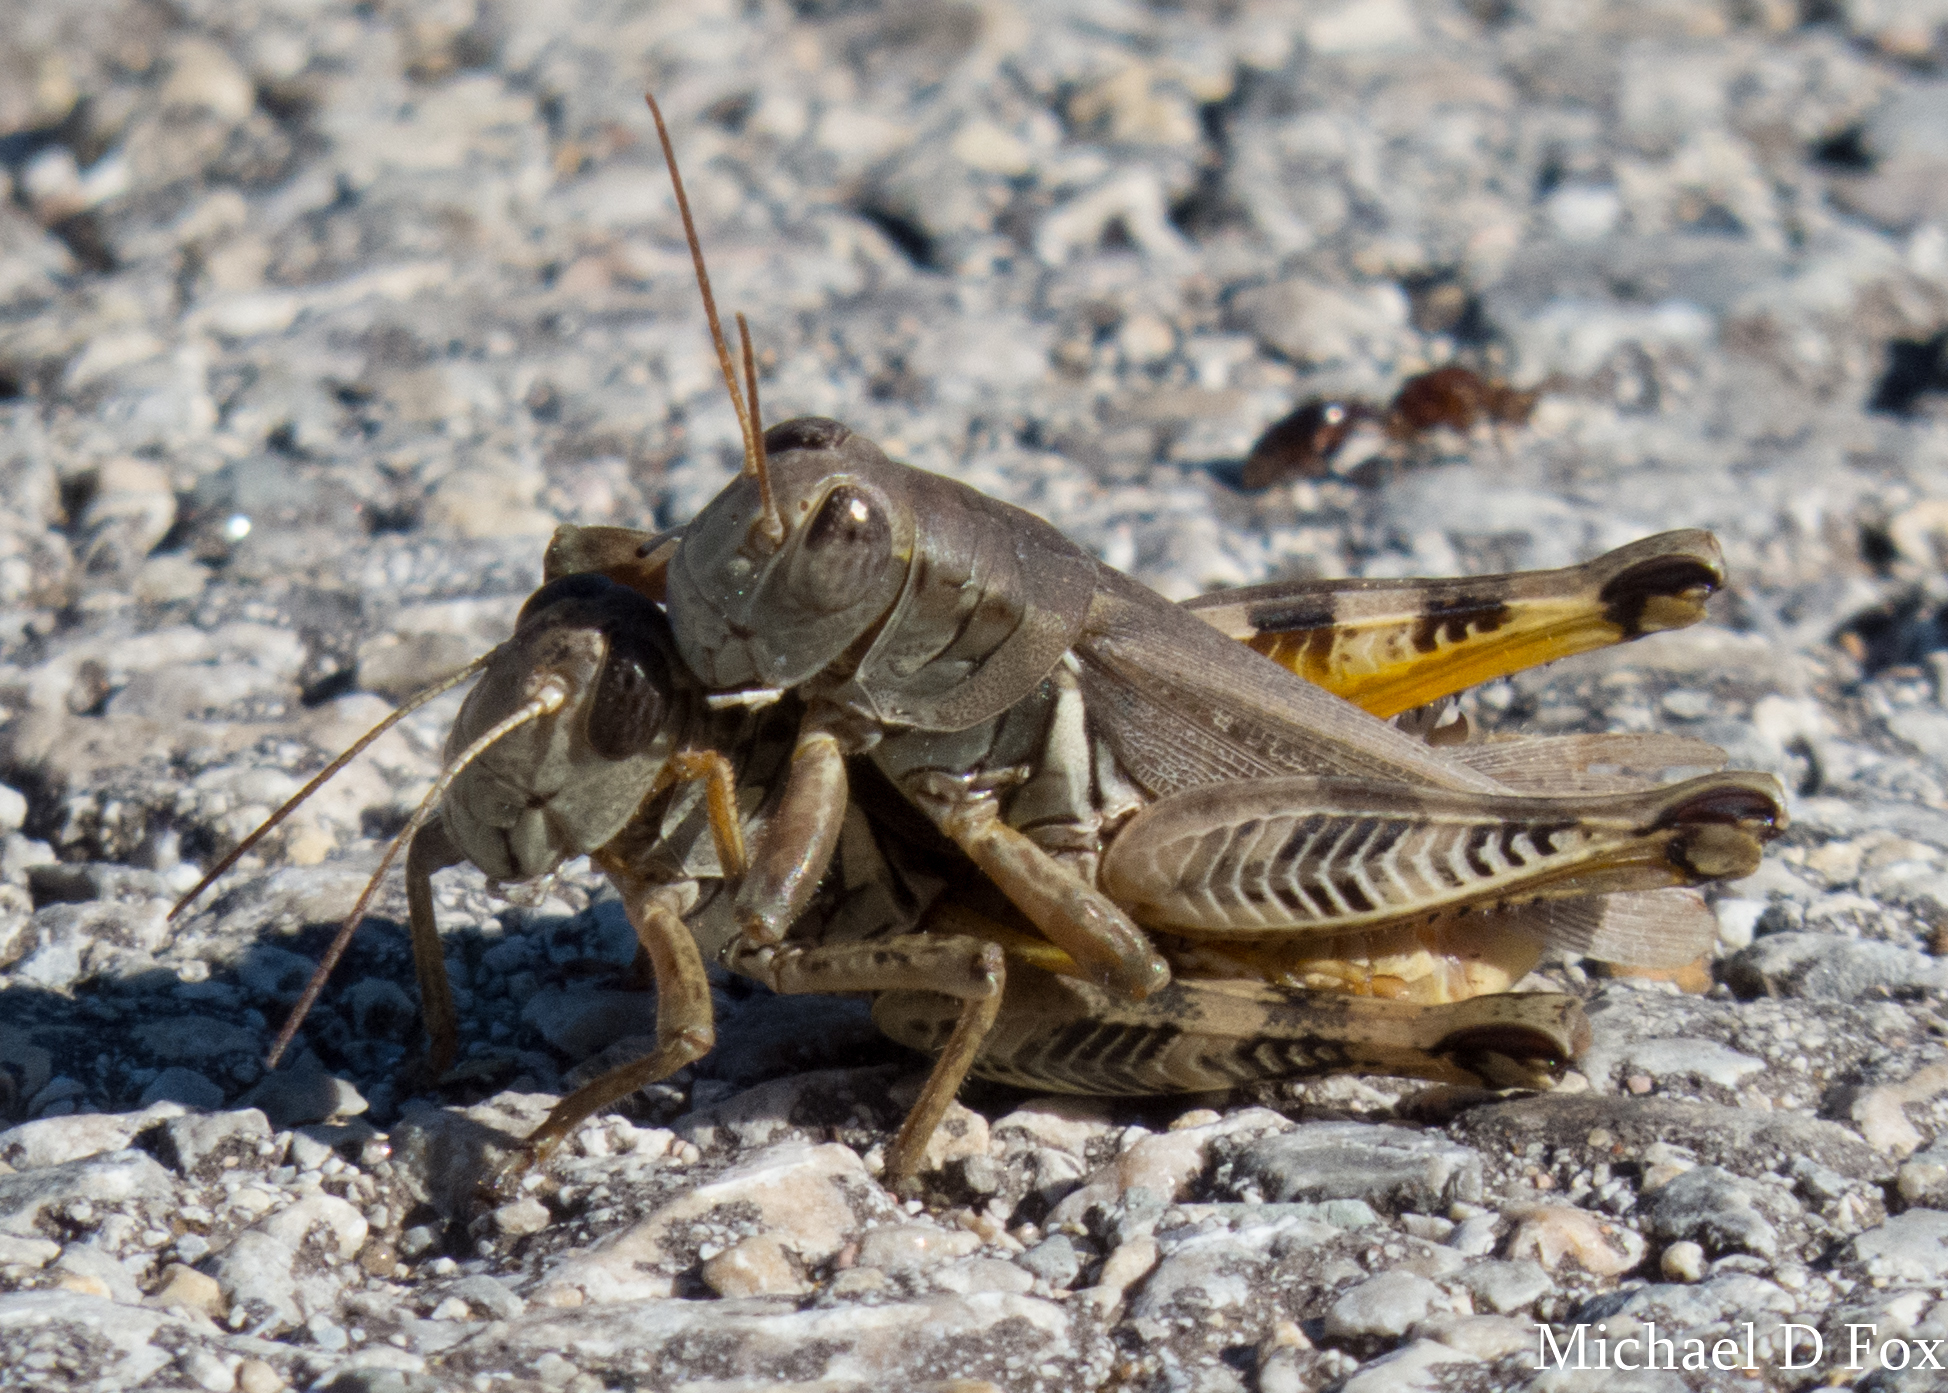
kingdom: Animalia
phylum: Arthropoda
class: Insecta
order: Orthoptera
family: Acrididae
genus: Melanoplus
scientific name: Melanoplus ponderosus
